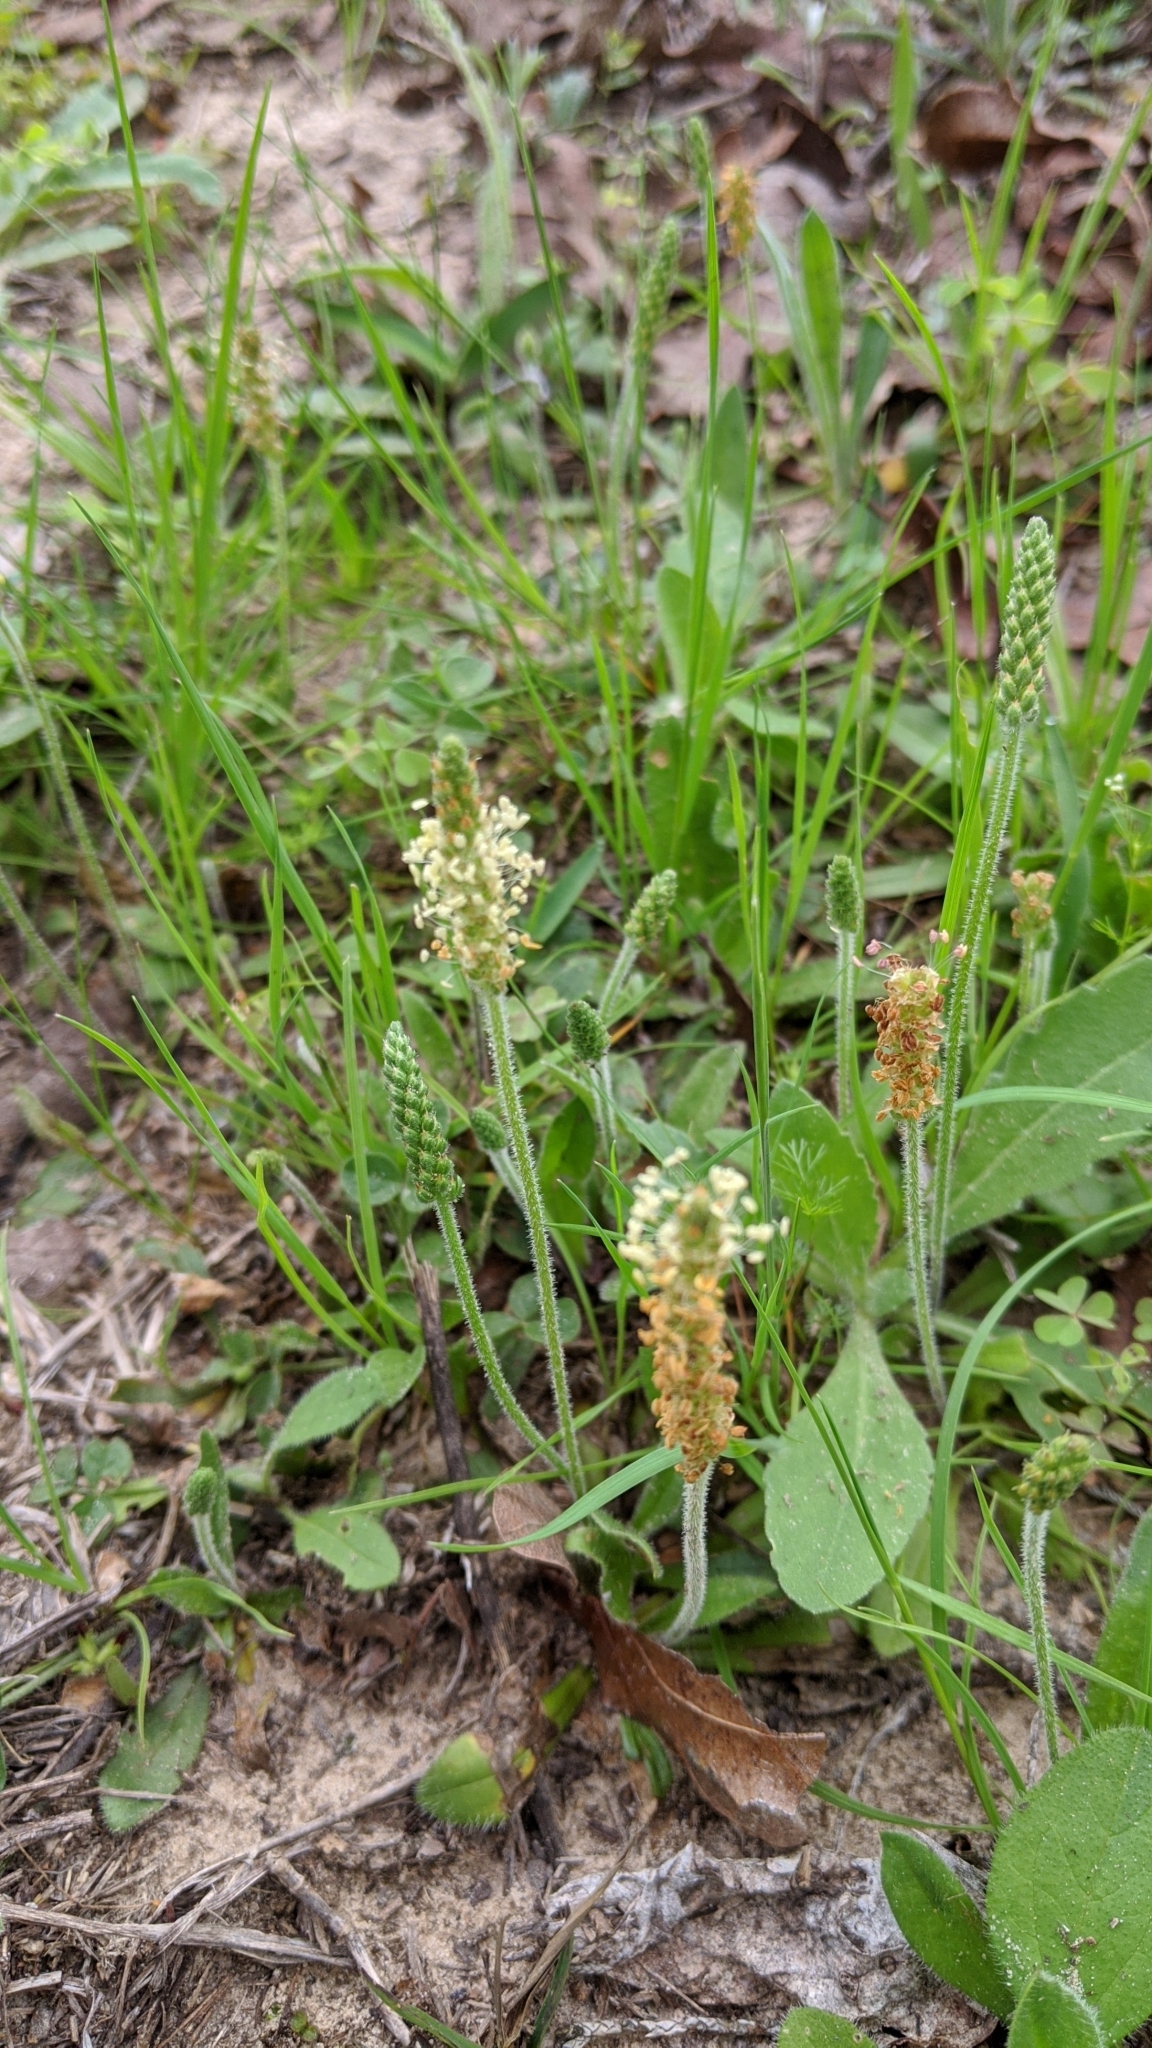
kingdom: Plantae
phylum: Tracheophyta
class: Magnoliopsida
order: Lamiales
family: Plantaginaceae
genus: Plantago
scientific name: Plantago virginica
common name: Hoary plantain
